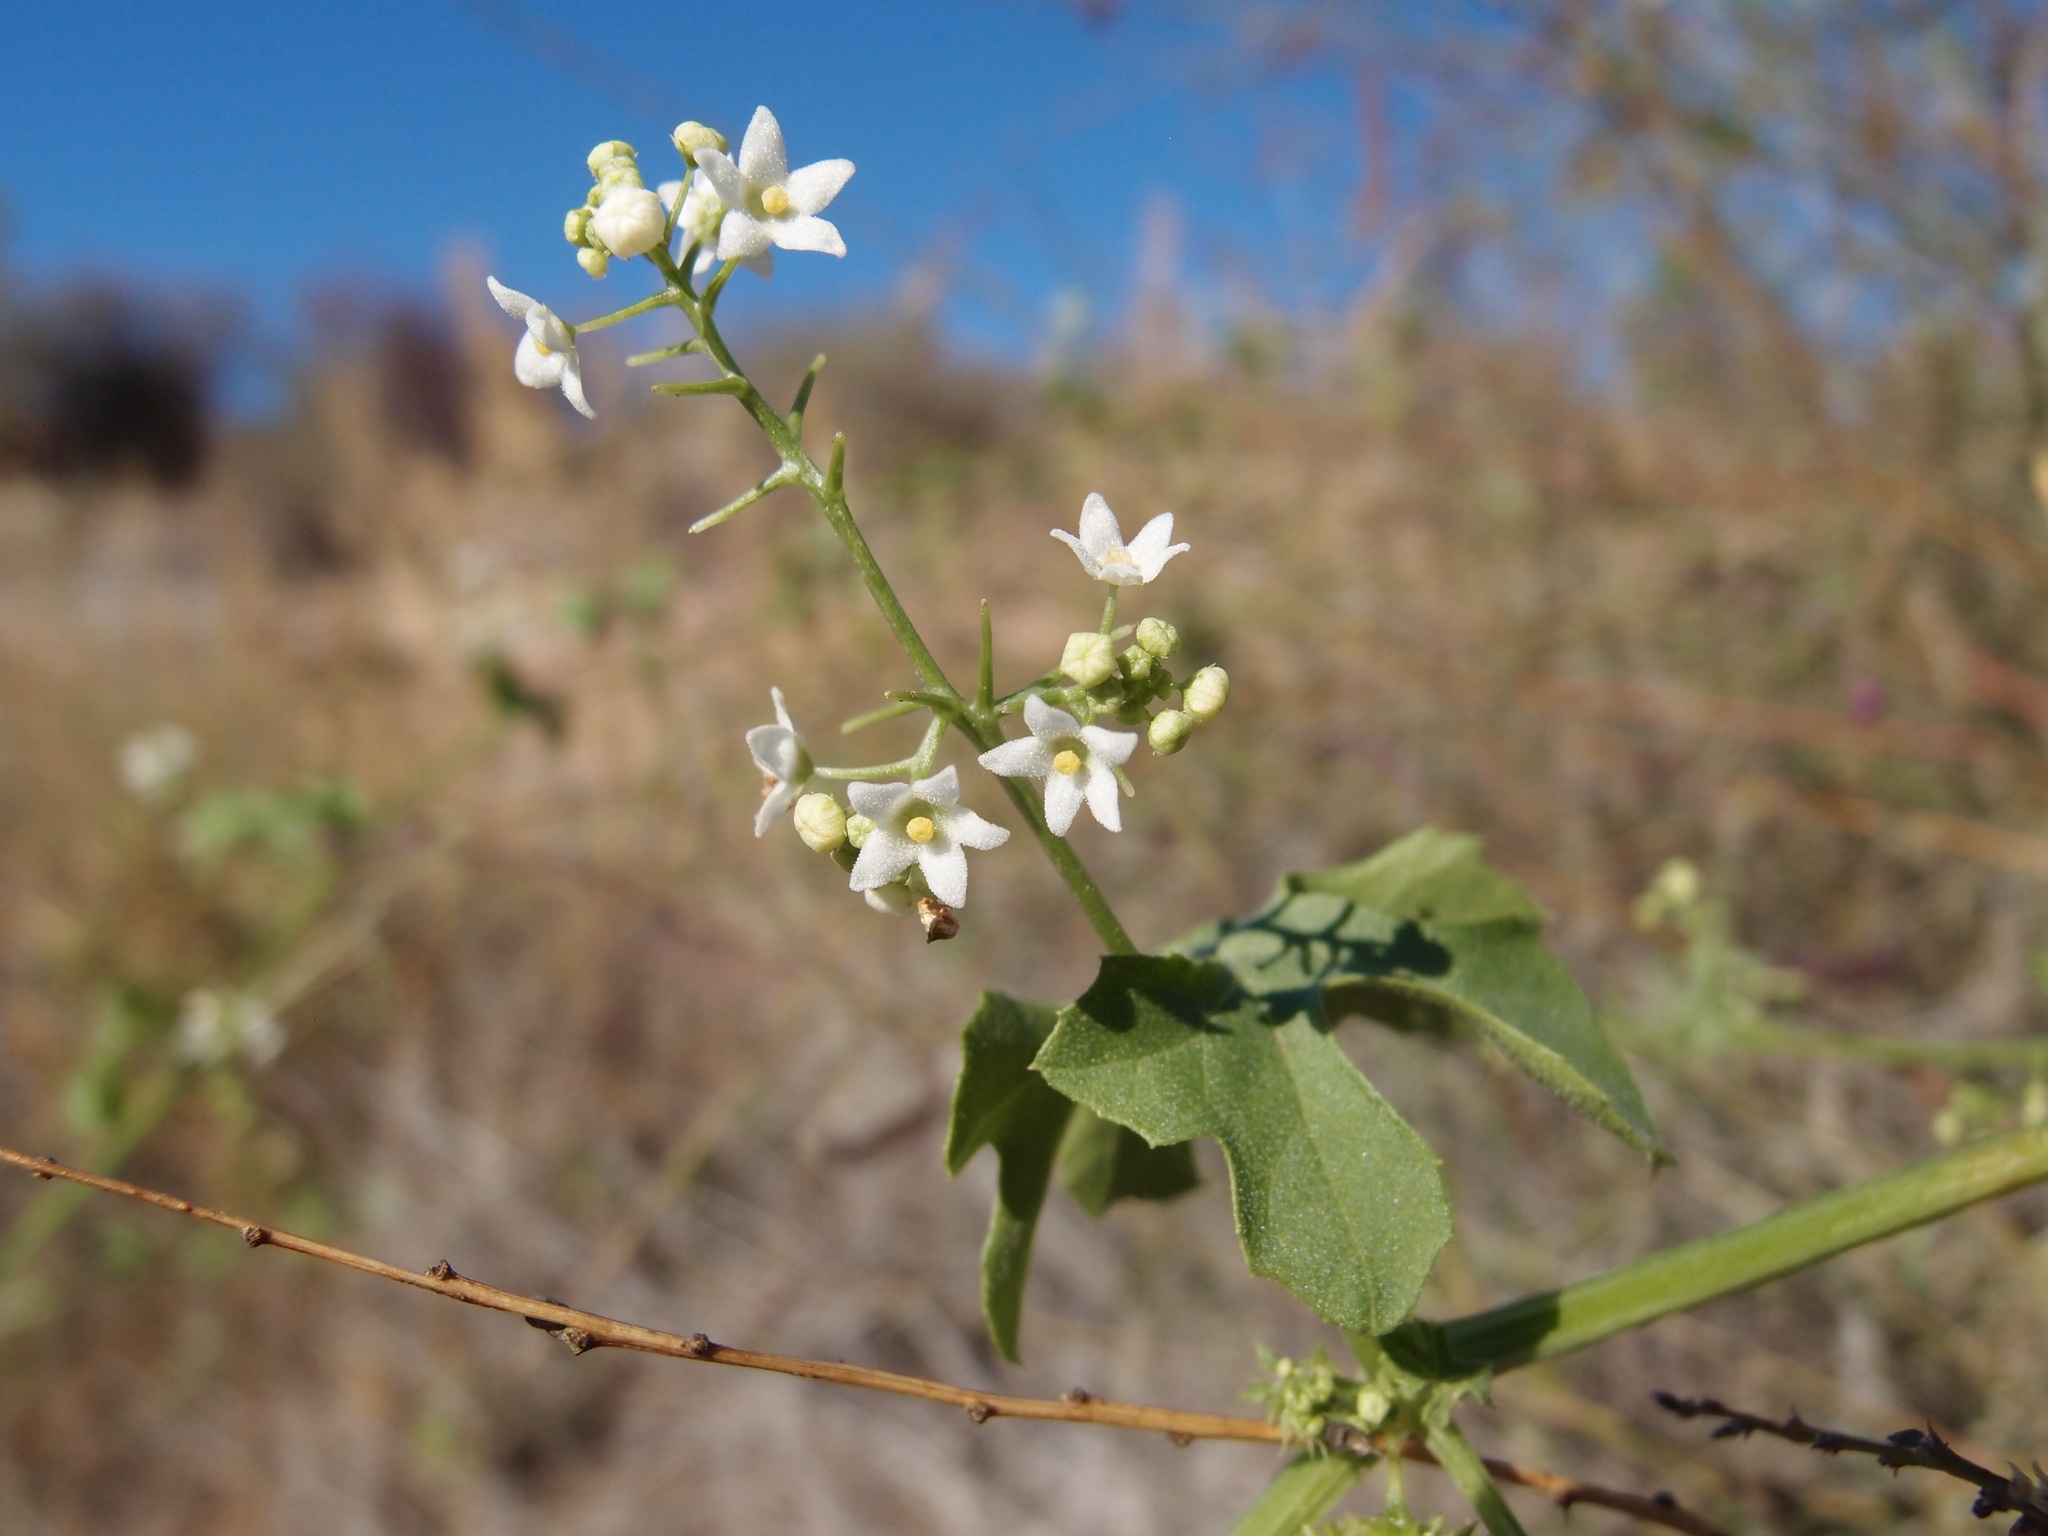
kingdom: Plantae
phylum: Tracheophyta
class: Magnoliopsida
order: Cucurbitales
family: Cucurbitaceae
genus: Echinopepon
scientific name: Echinopepon insularis
